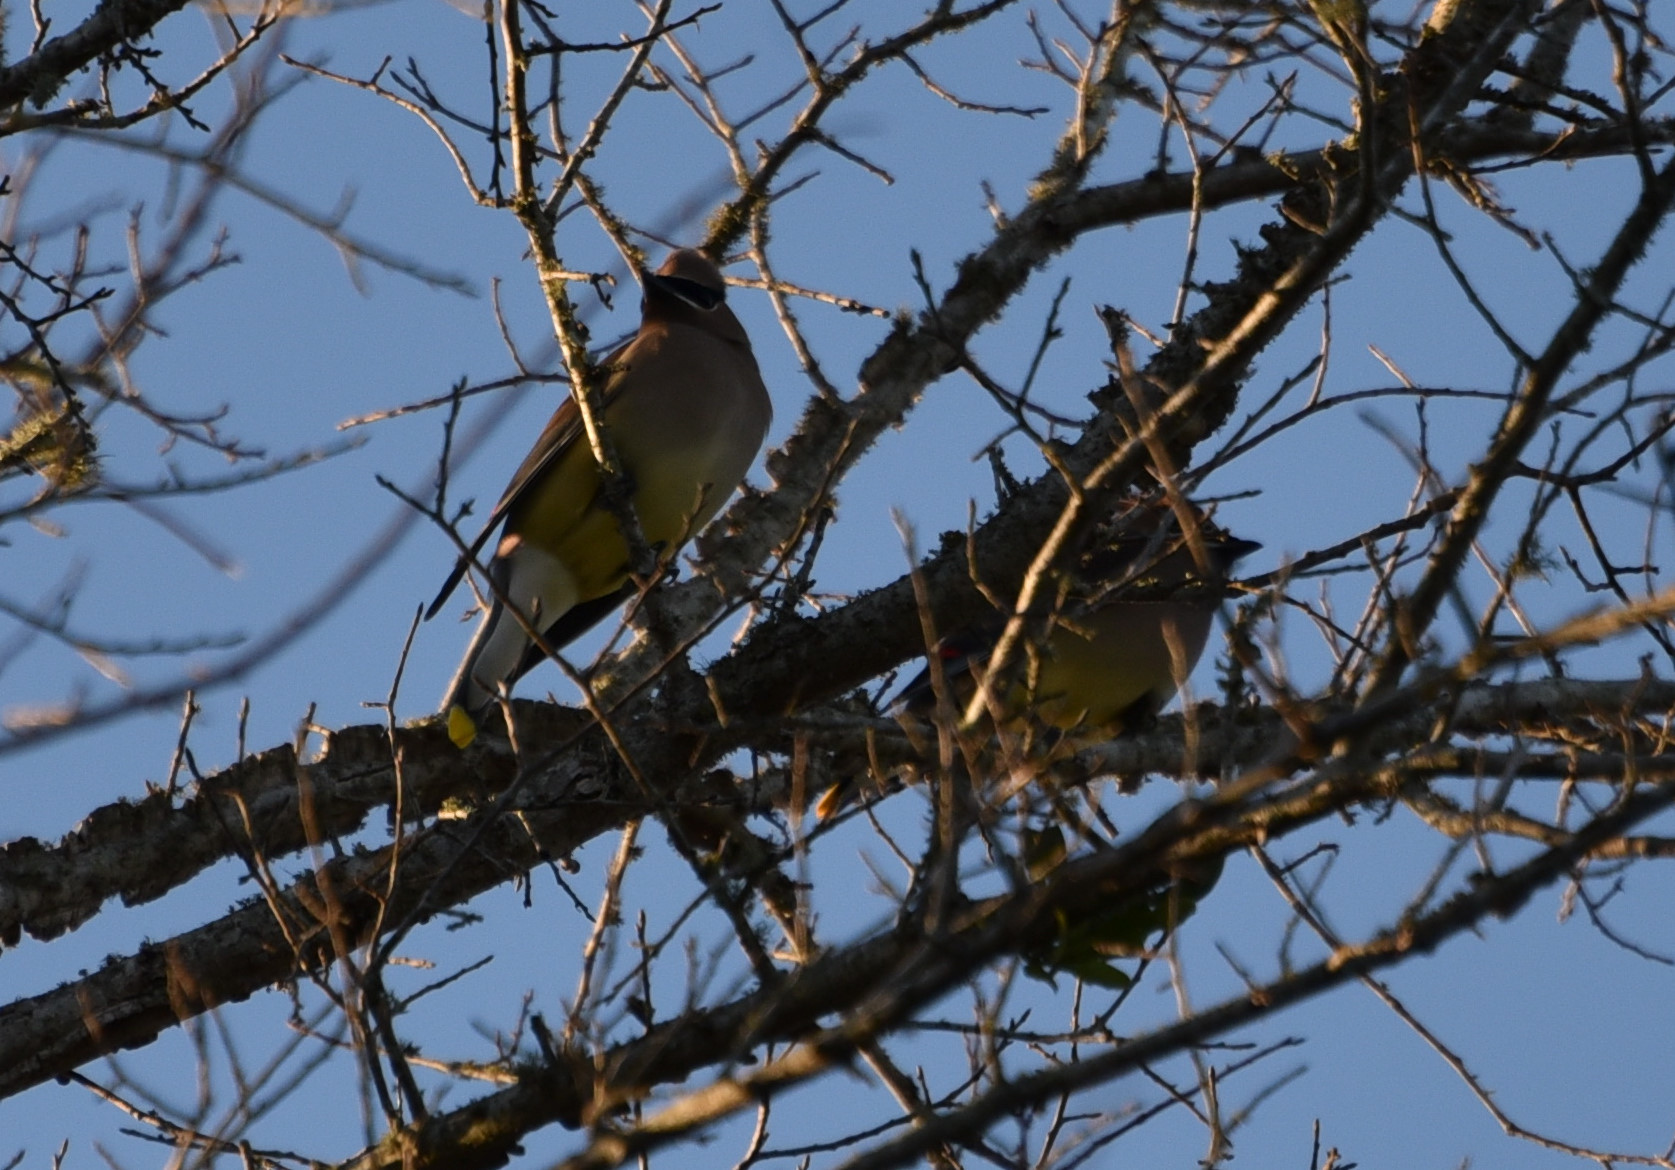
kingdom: Animalia
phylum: Chordata
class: Aves
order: Passeriformes
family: Bombycillidae
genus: Bombycilla
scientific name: Bombycilla cedrorum
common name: Cedar waxwing
